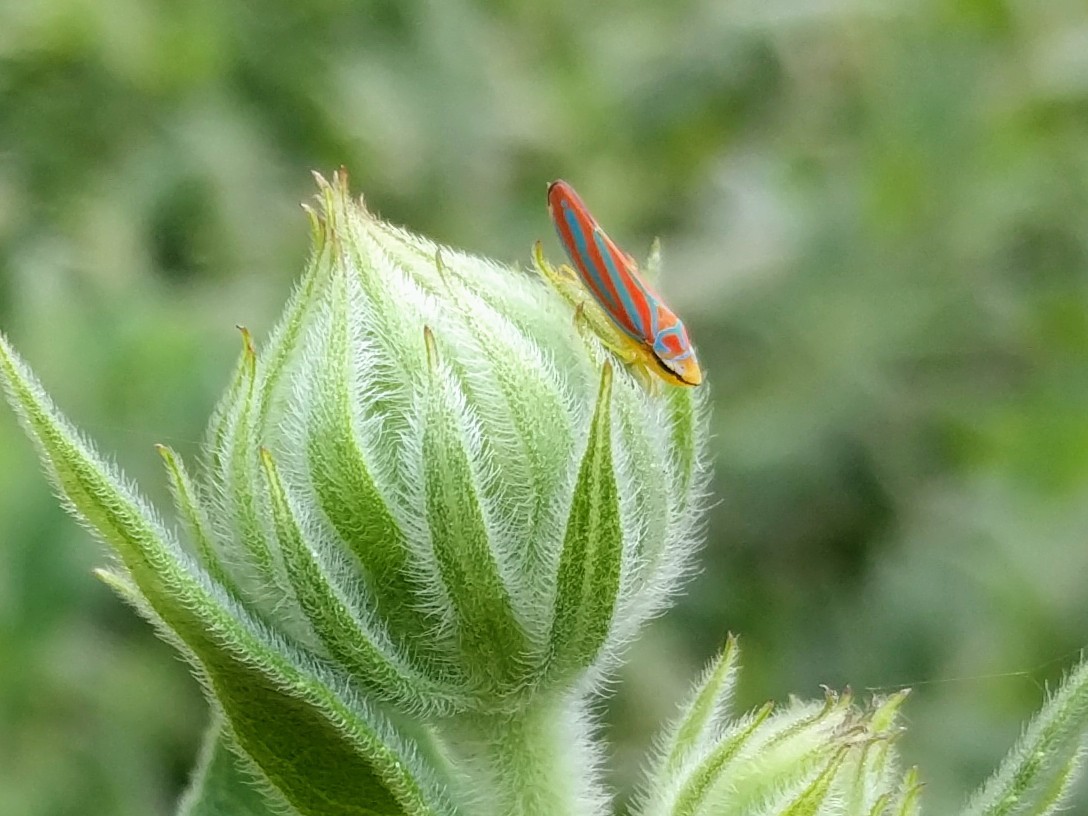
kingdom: Animalia
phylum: Arthropoda
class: Insecta
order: Hemiptera
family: Cicadellidae
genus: Graphocephala
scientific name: Graphocephala coccinea
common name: Candy-striped leafhopper
